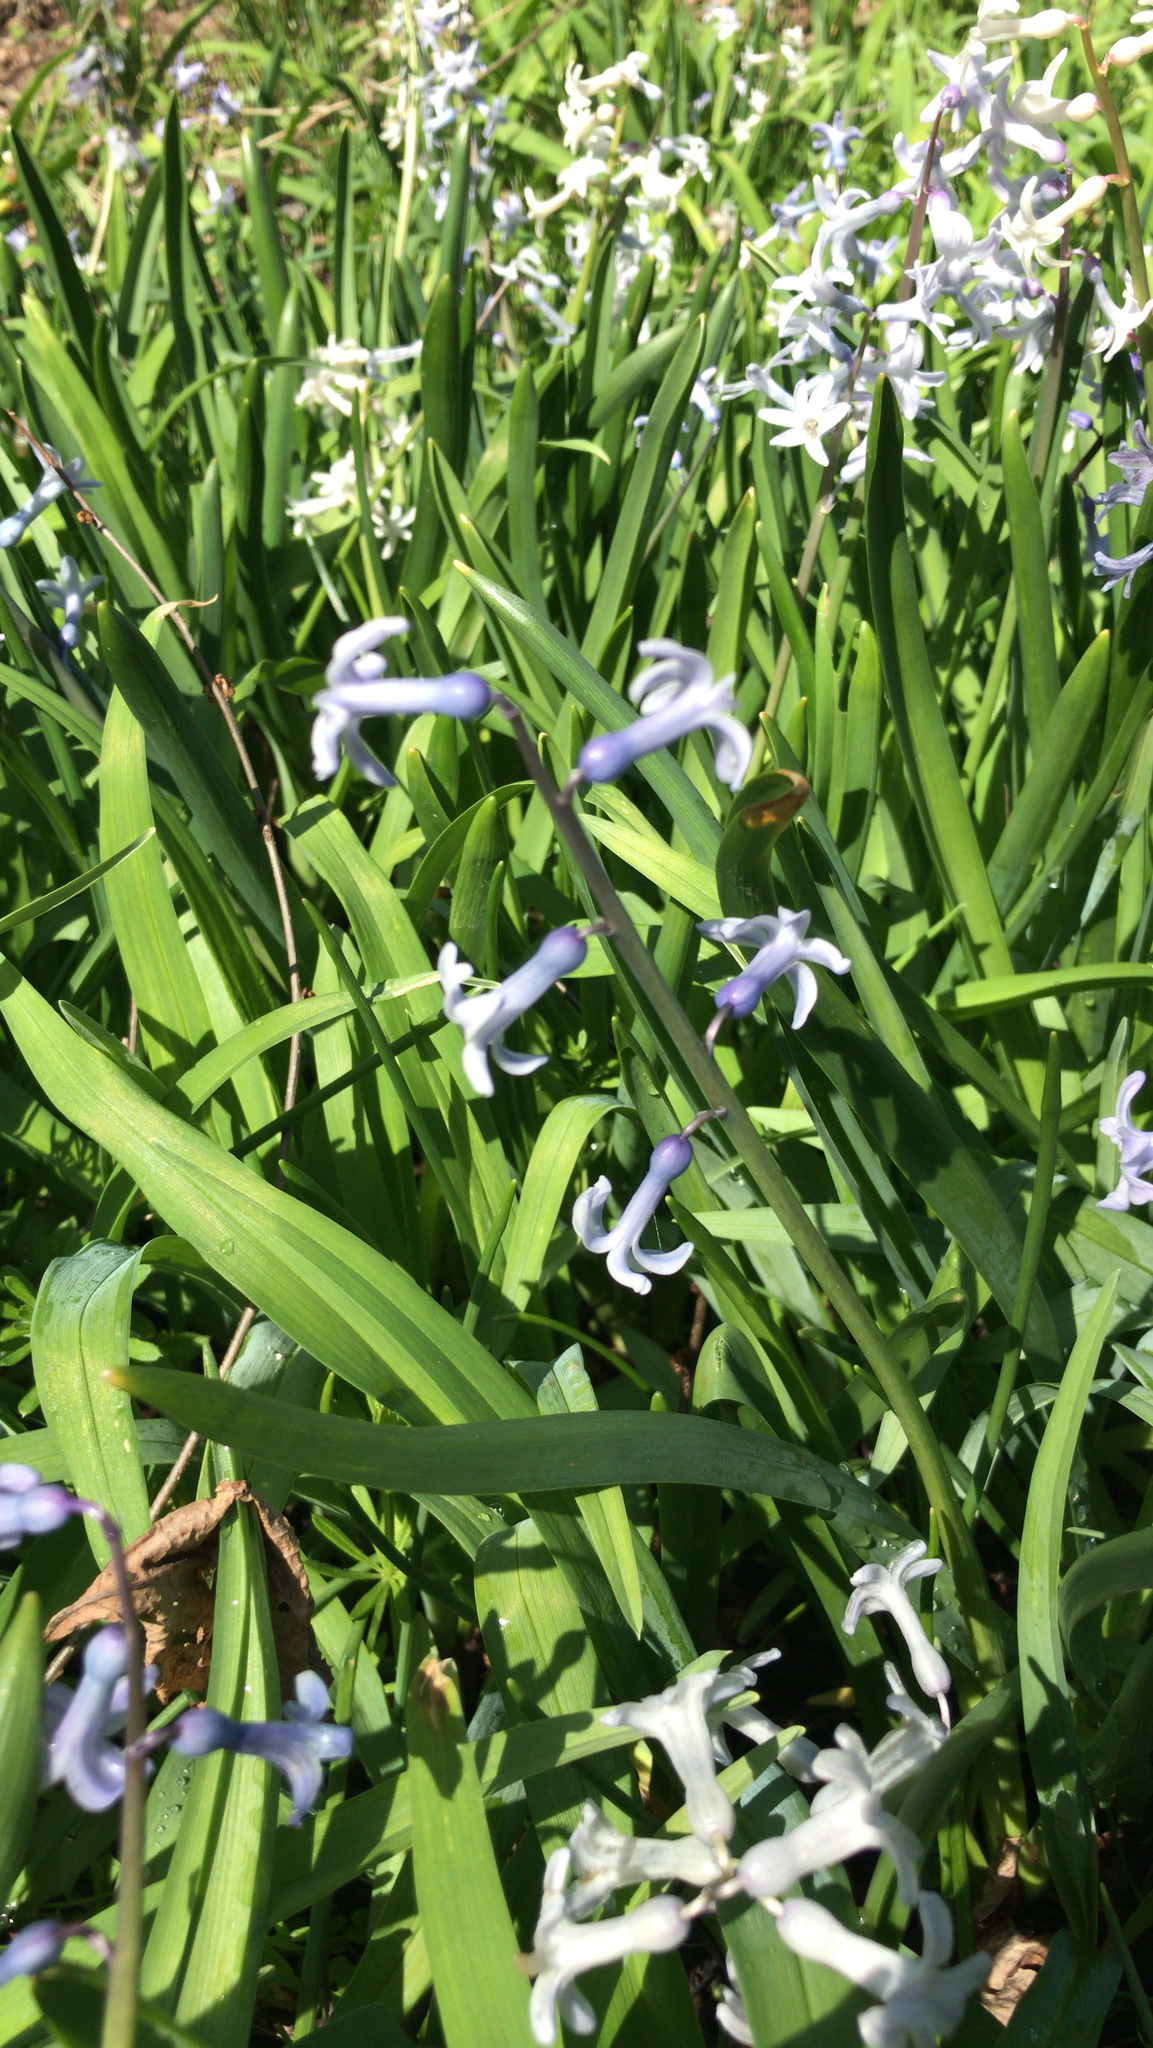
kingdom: Plantae
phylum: Tracheophyta
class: Liliopsida
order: Asparagales
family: Asparagaceae
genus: Hyacinthus
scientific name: Hyacinthus orientalis
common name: Hyacinth
